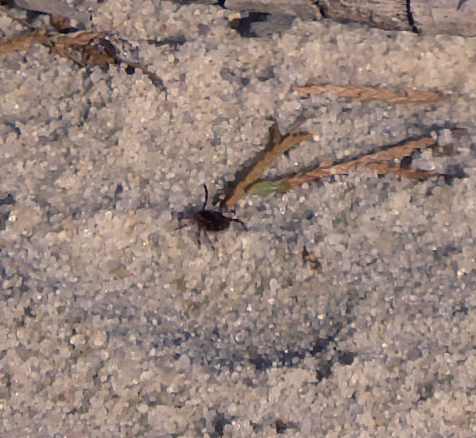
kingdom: Animalia
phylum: Arthropoda
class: Arachnida
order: Ixodida
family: Ixodidae
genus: Dermacentor
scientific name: Dermacentor variabilis
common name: American dog tick
